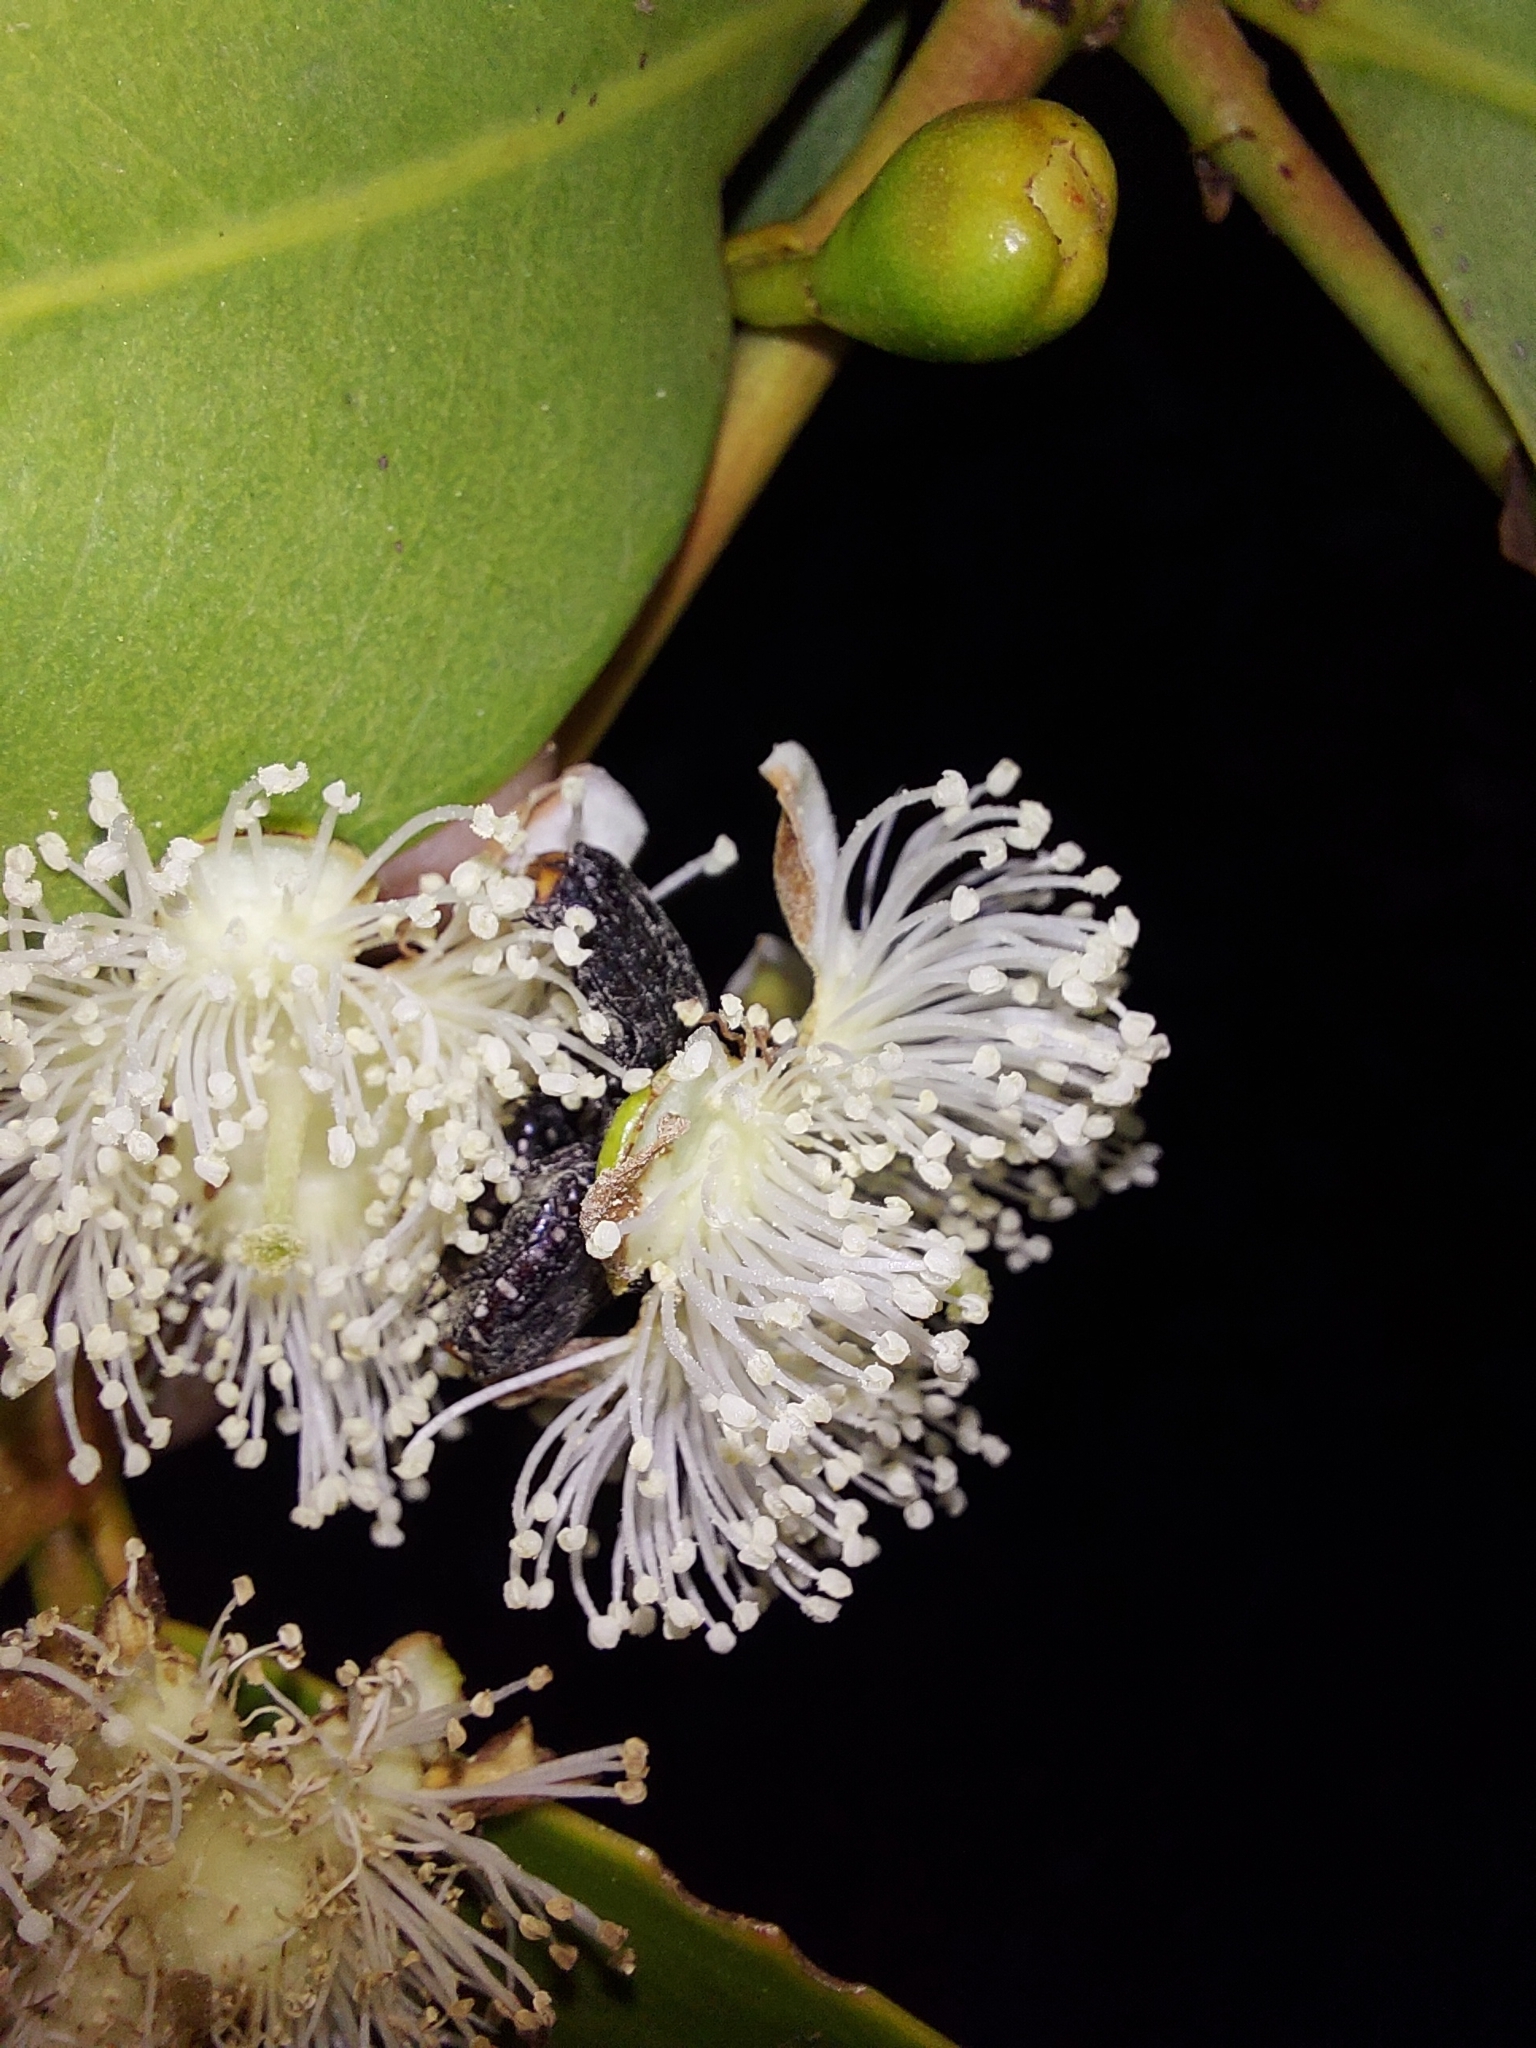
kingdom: Plantae
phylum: Tracheophyta
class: Magnoliopsida
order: Myrtales
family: Myrtaceae
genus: Psidium
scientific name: Psidium cattleianum
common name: Strawberry guava
